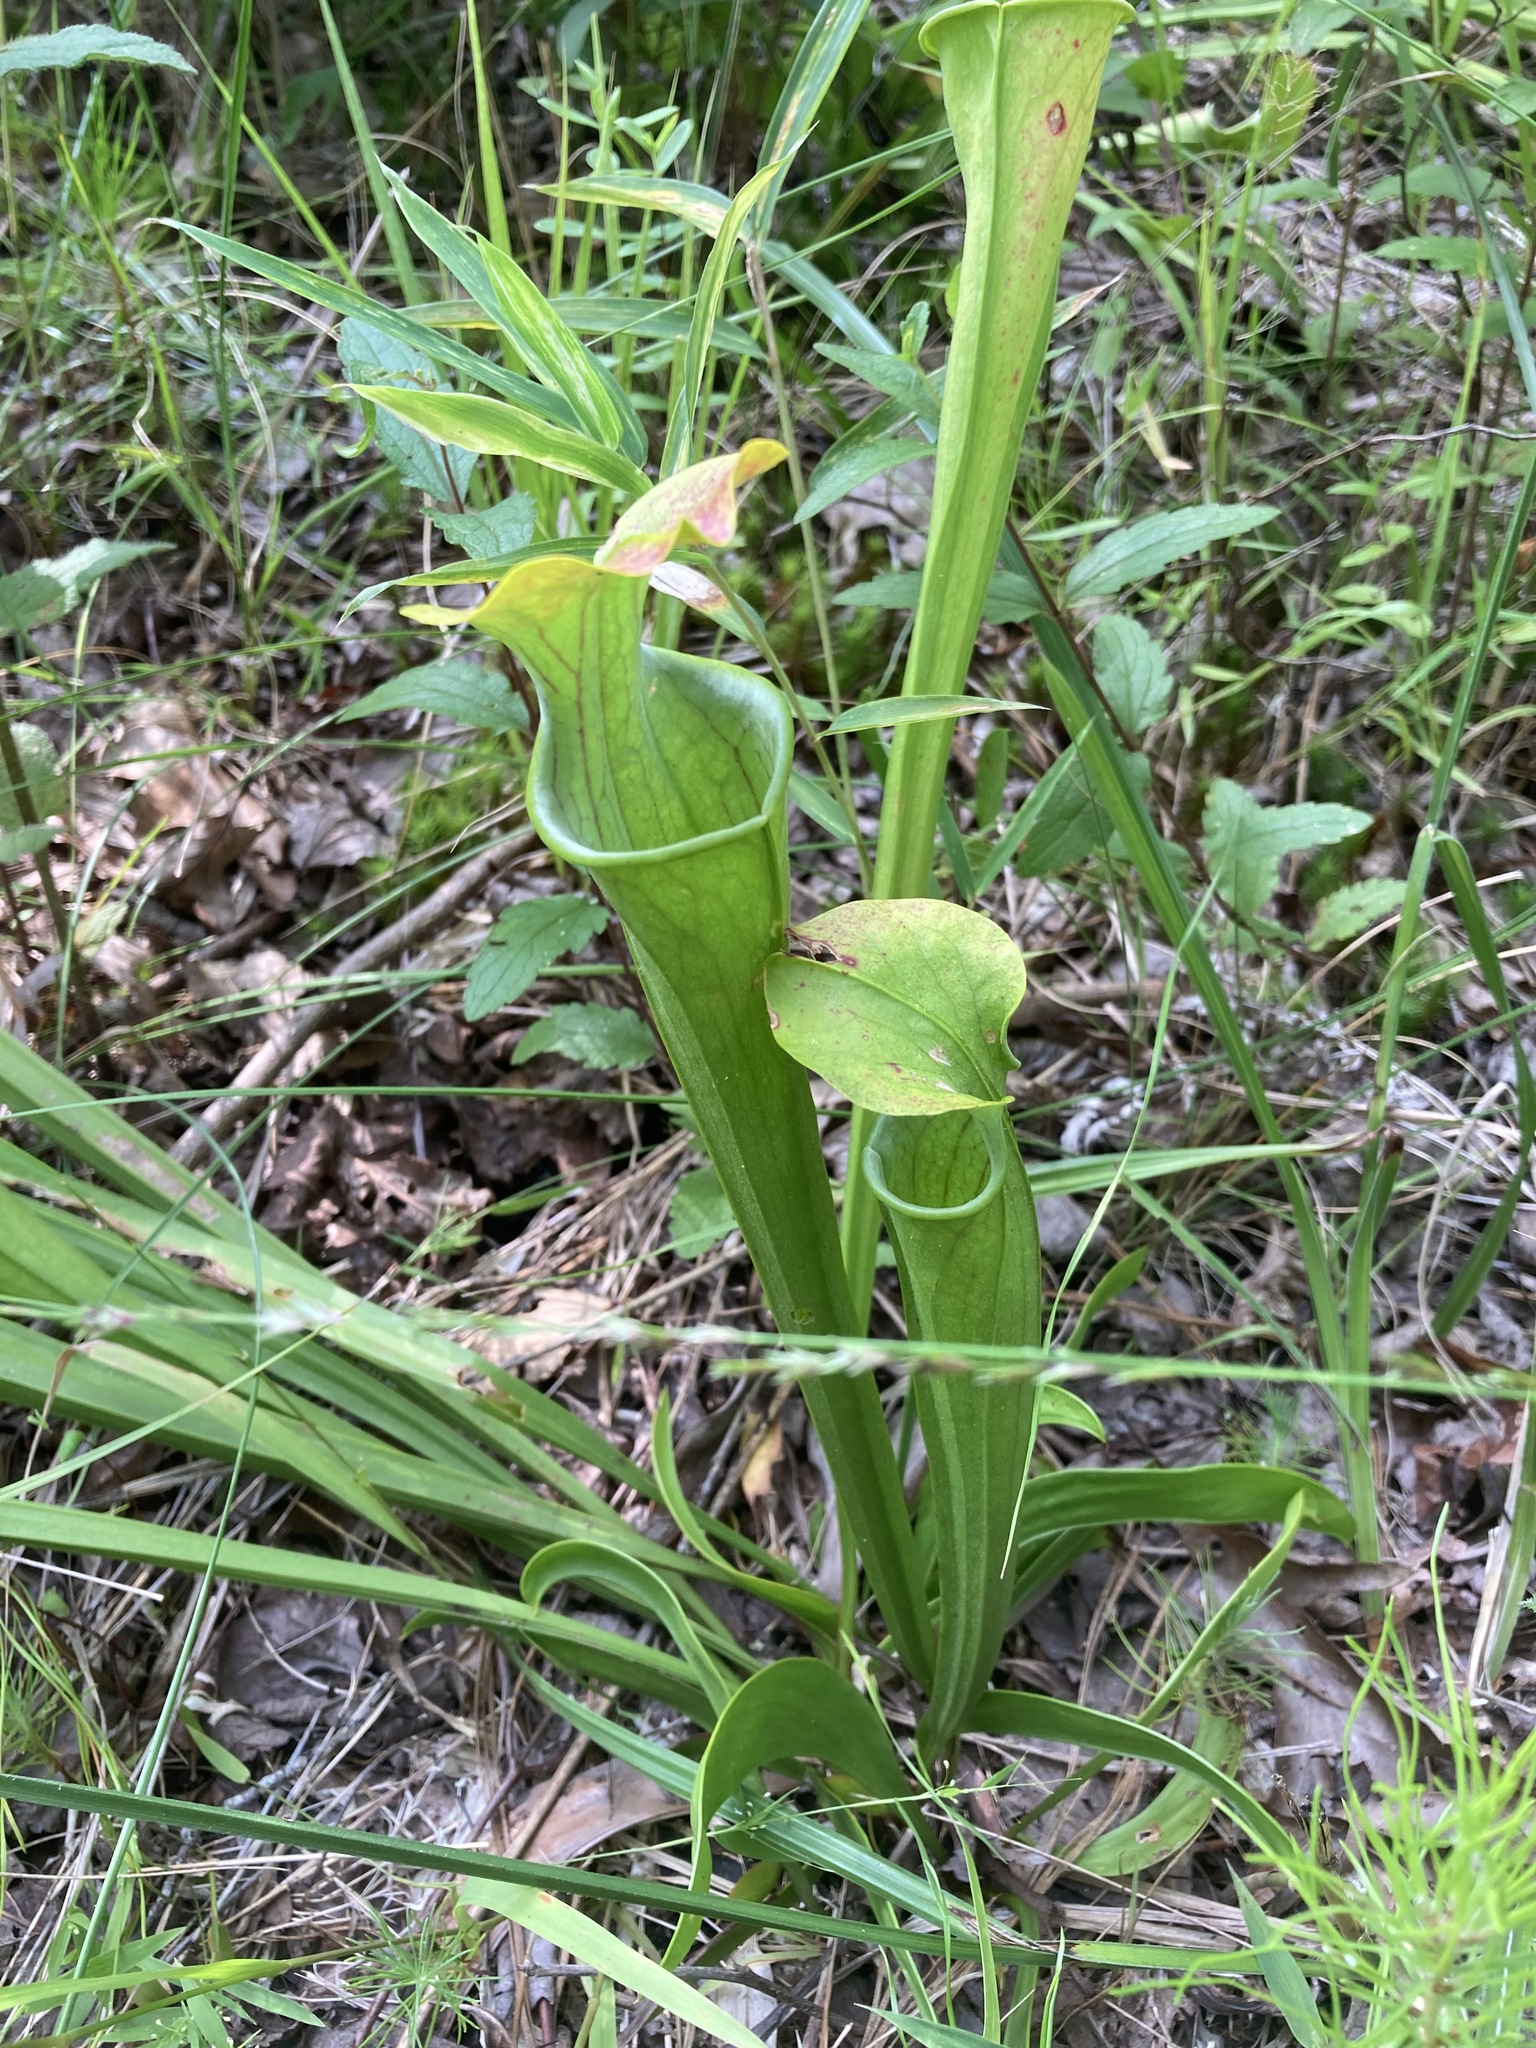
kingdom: Plantae
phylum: Tracheophyta
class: Magnoliopsida
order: Ericales
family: Sarraceniaceae
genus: Sarracenia
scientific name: Sarracenia oreophila
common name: Green pitcherplant
